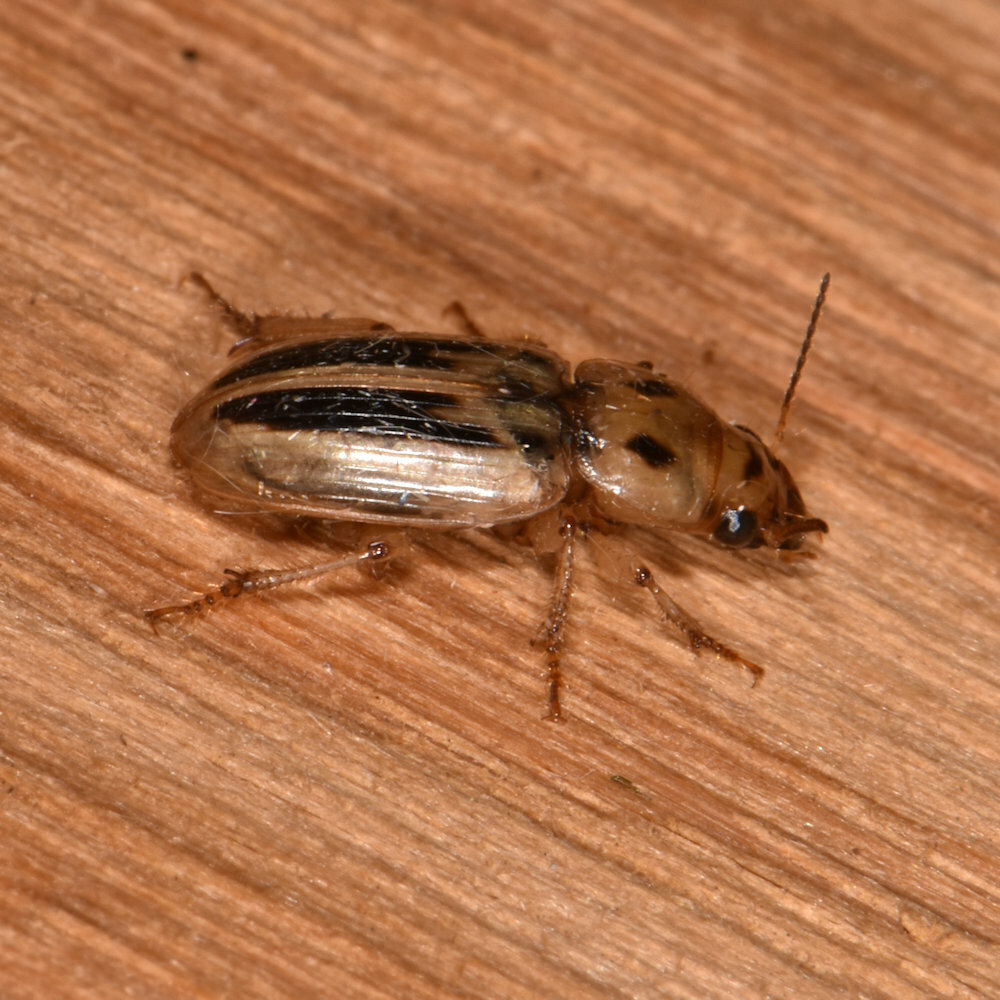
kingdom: Animalia
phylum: Arthropoda
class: Insecta
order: Coleoptera
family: Carabidae
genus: Stenolophus
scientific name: Stenolophus lineola
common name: Lined stenolophus
